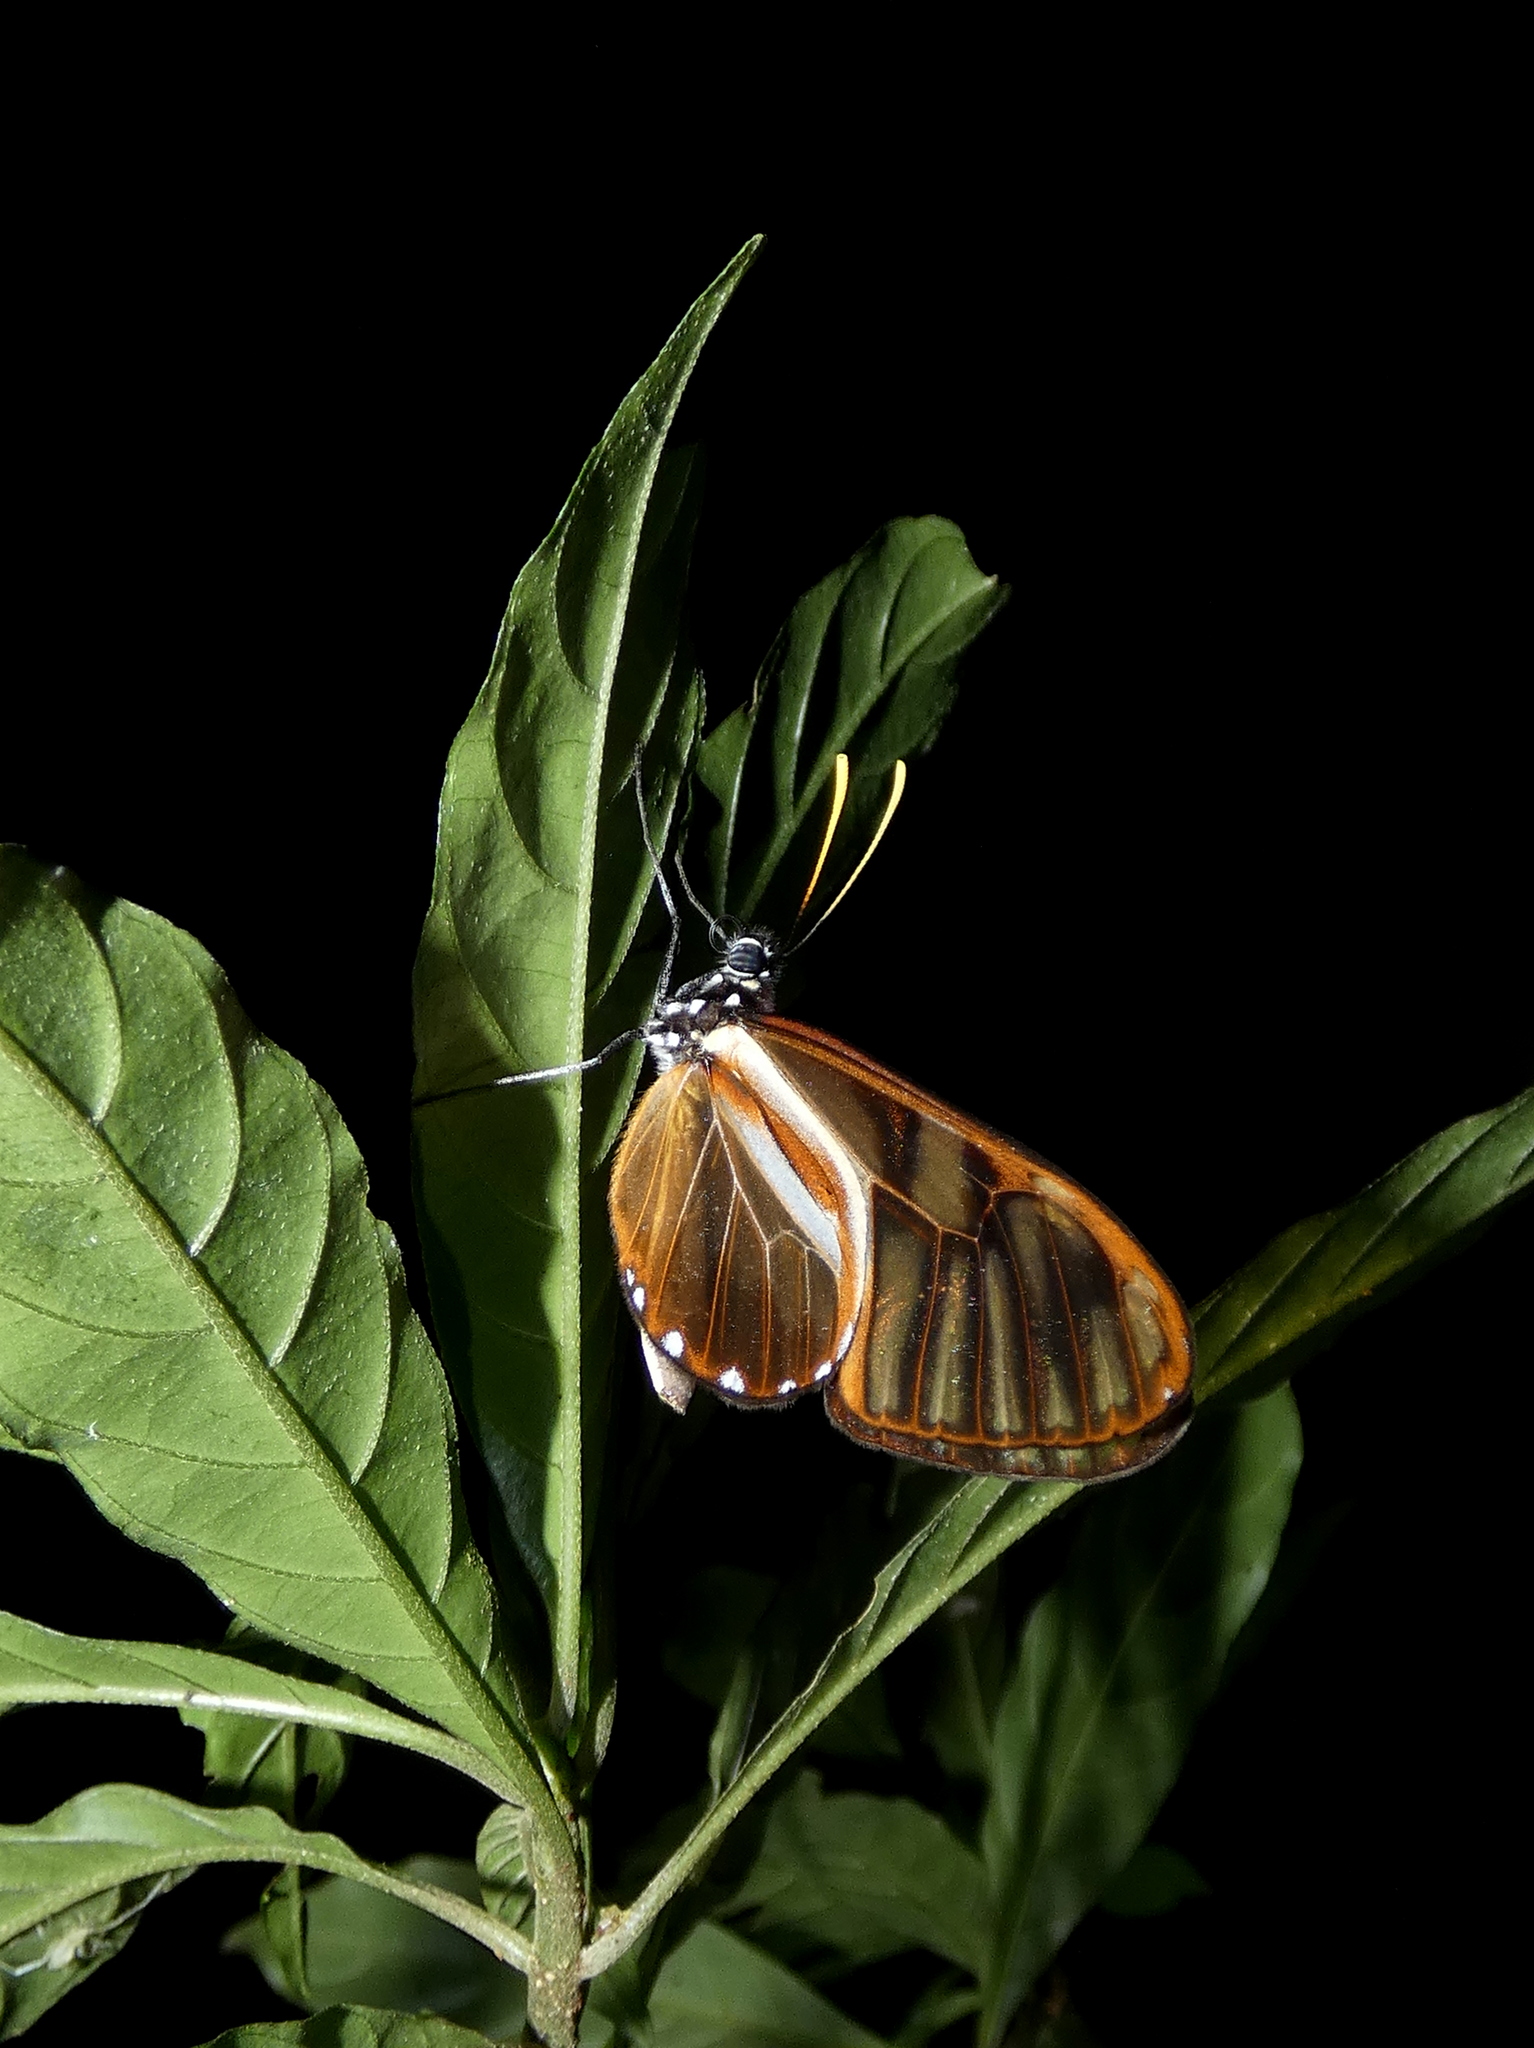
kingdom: Animalia
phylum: Arthropoda
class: Insecta
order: Lepidoptera
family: Nymphalidae
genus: Ithomia
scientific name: Ithomia xenos
